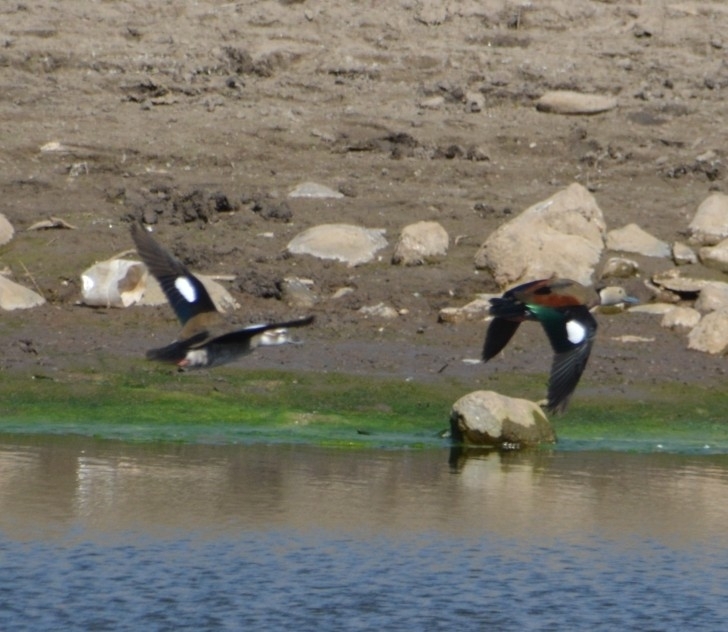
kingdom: Animalia
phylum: Chordata
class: Aves
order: Anseriformes
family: Anatidae
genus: Callonetta
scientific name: Callonetta leucophrys
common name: Ringed teal
